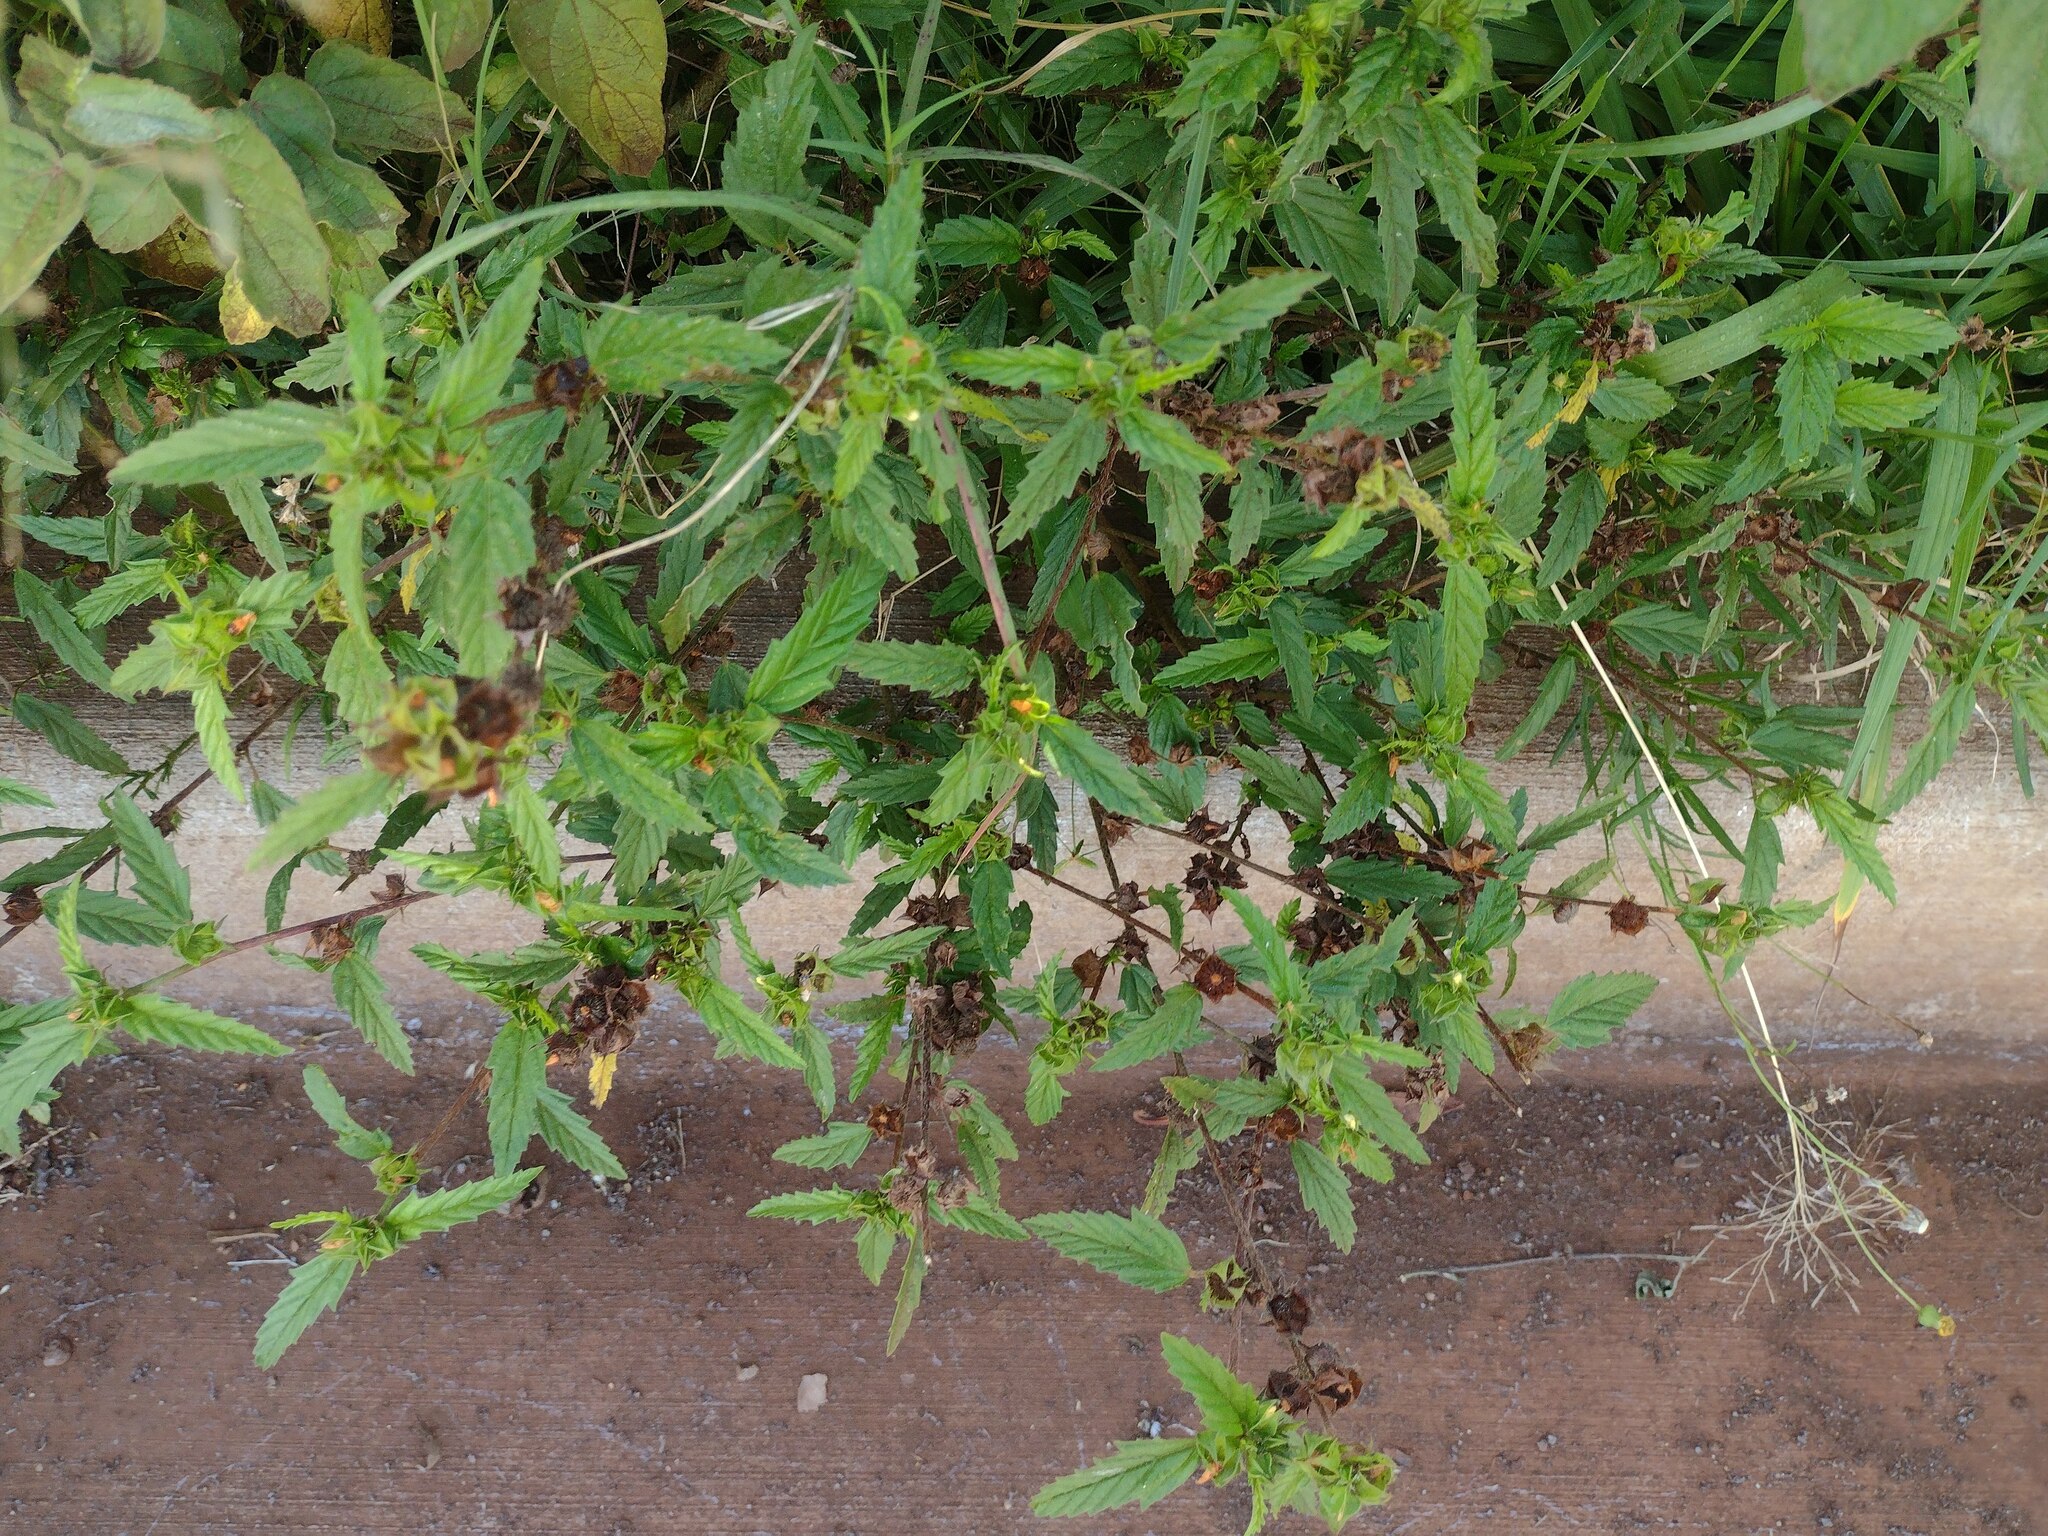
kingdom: Plantae
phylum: Tracheophyta
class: Magnoliopsida
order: Malvales
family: Malvaceae
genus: Malvastrum
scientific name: Malvastrum coromandelianum
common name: Threelobe false mallow
